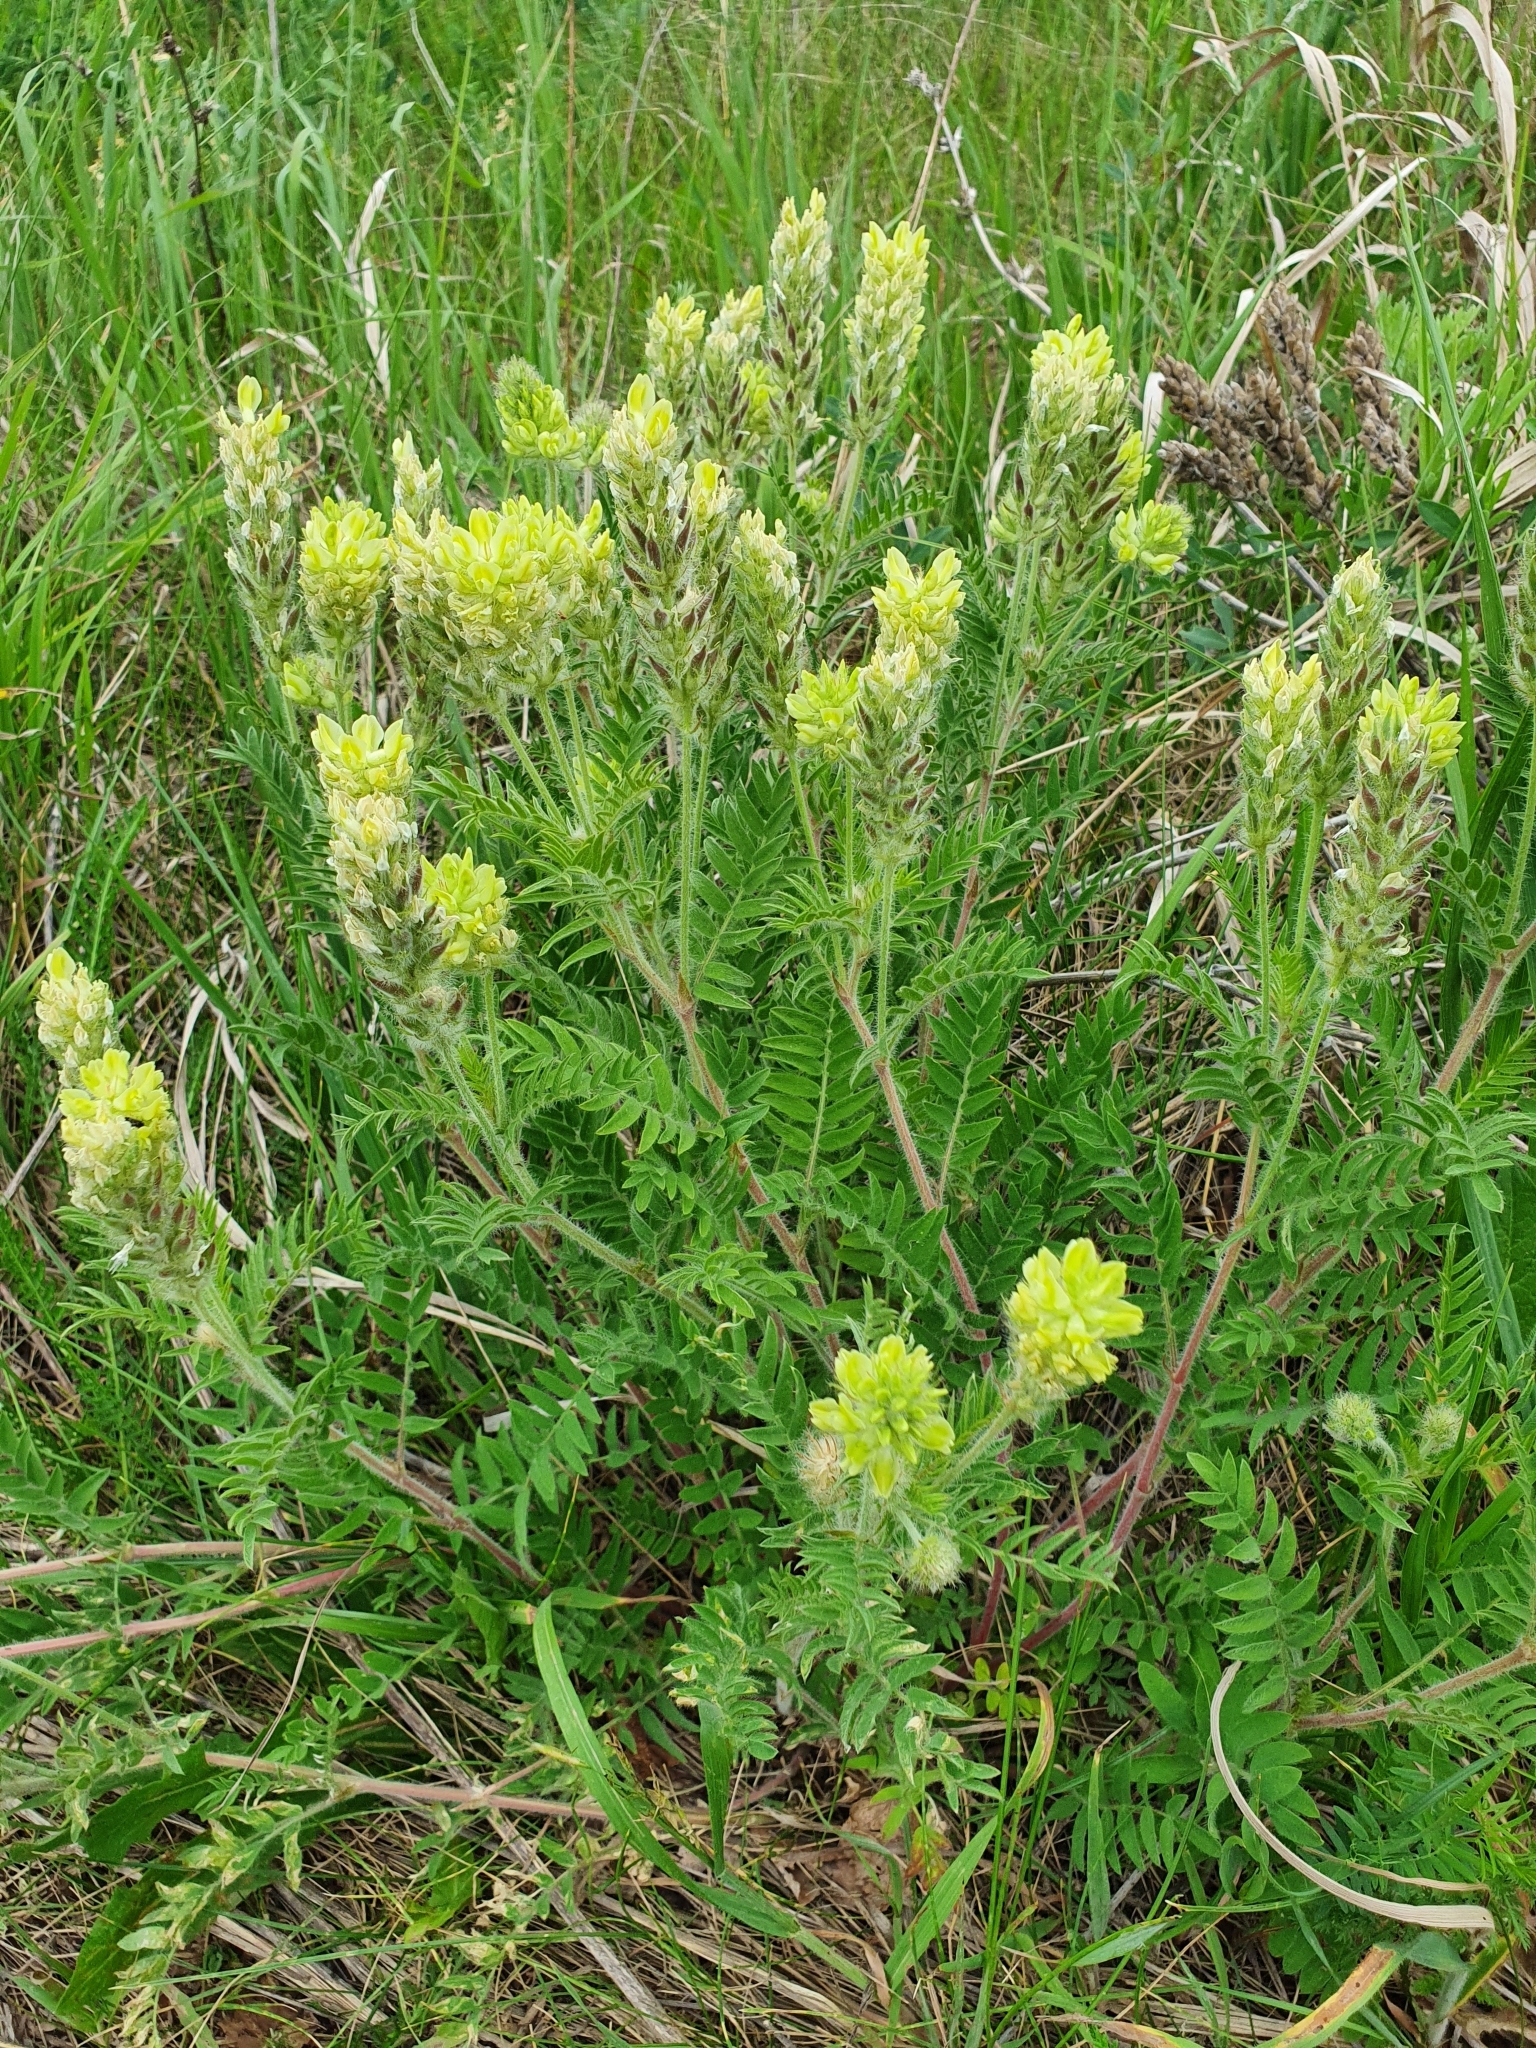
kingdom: Plantae
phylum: Tracheophyta
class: Magnoliopsida
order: Fabales
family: Fabaceae
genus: Oxytropis
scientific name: Oxytropis pilosa
